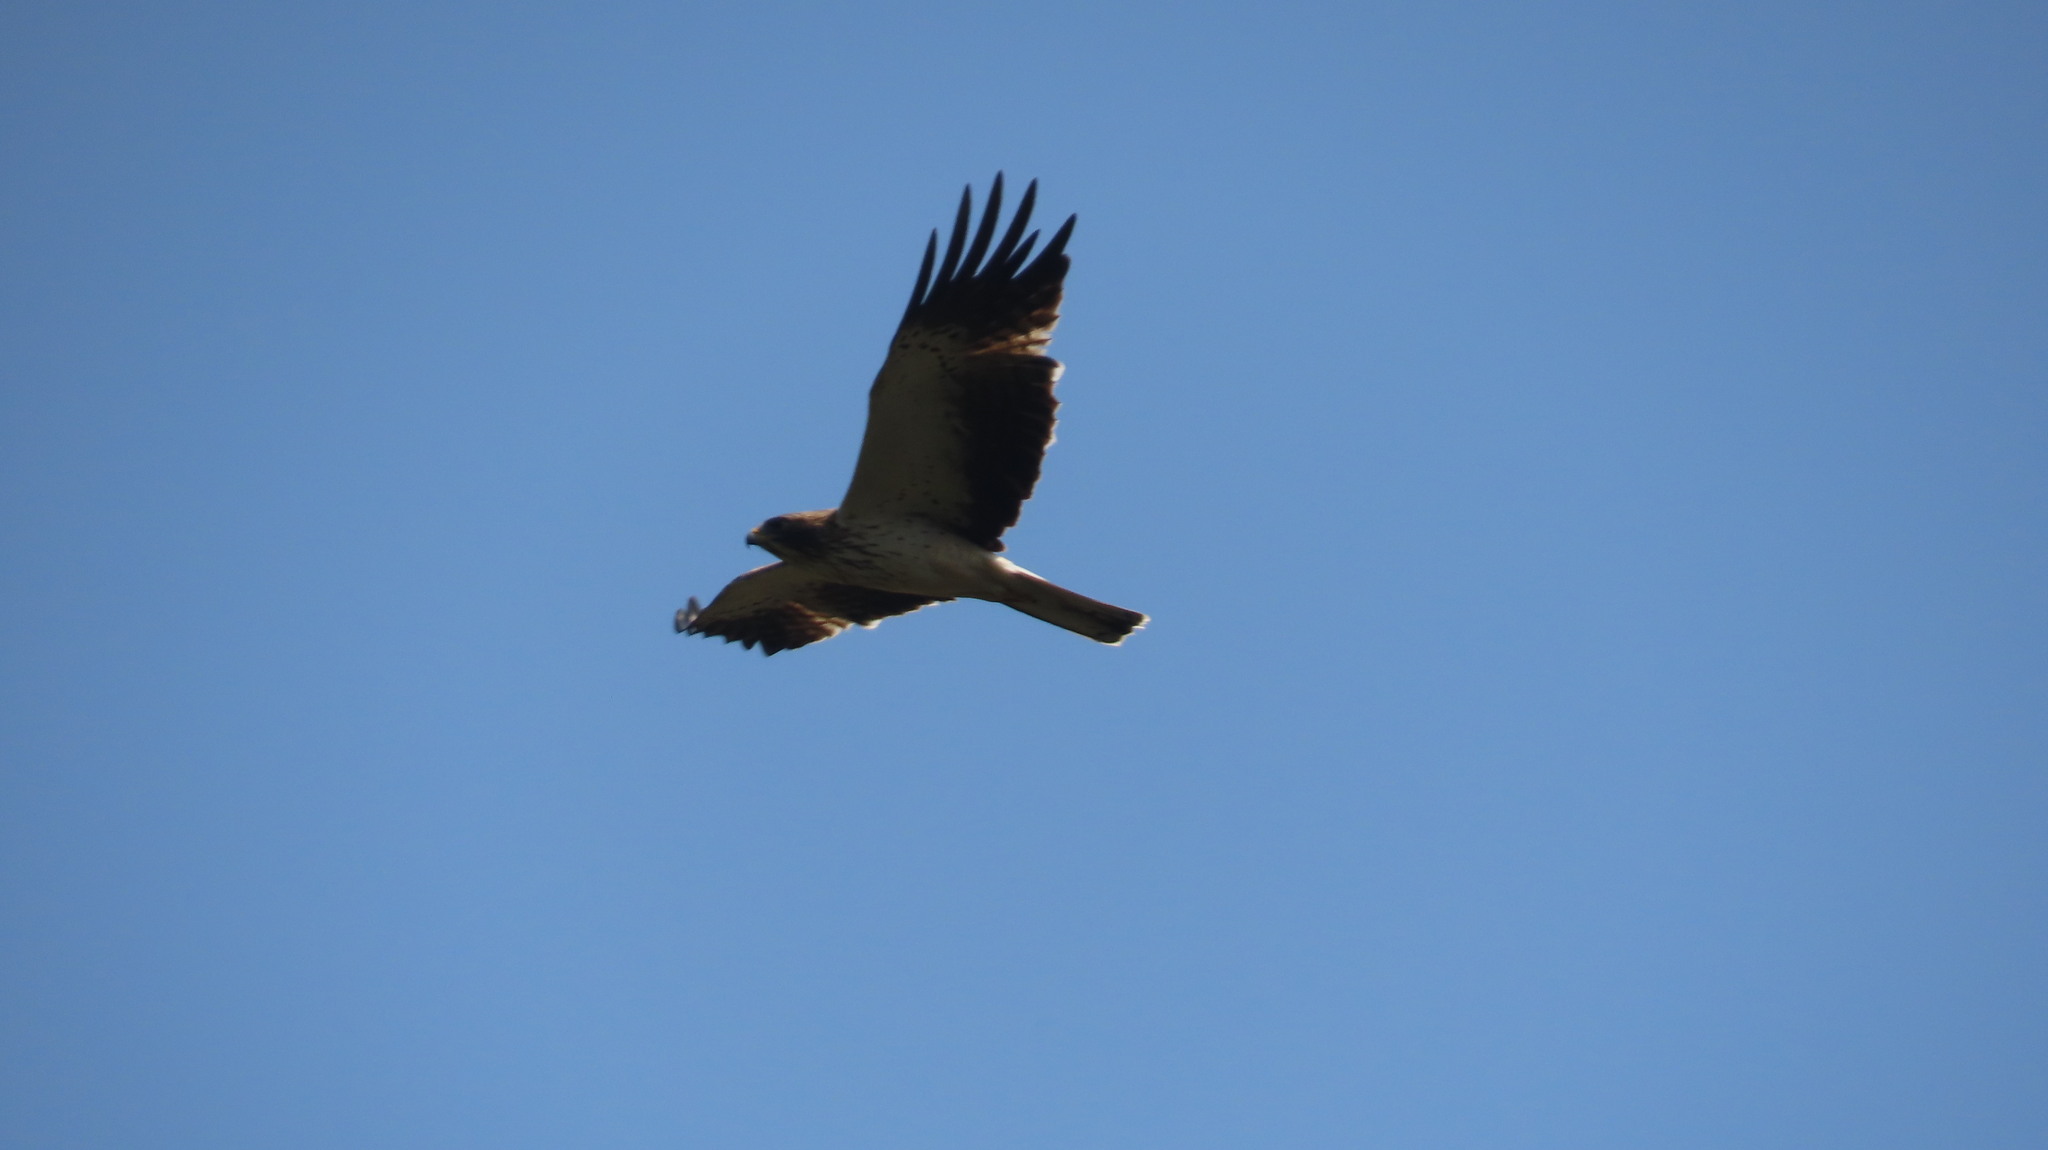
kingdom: Animalia
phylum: Chordata
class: Aves
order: Accipitriformes
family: Accipitridae
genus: Hieraaetus
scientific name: Hieraaetus pennatus
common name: Booted eagle
